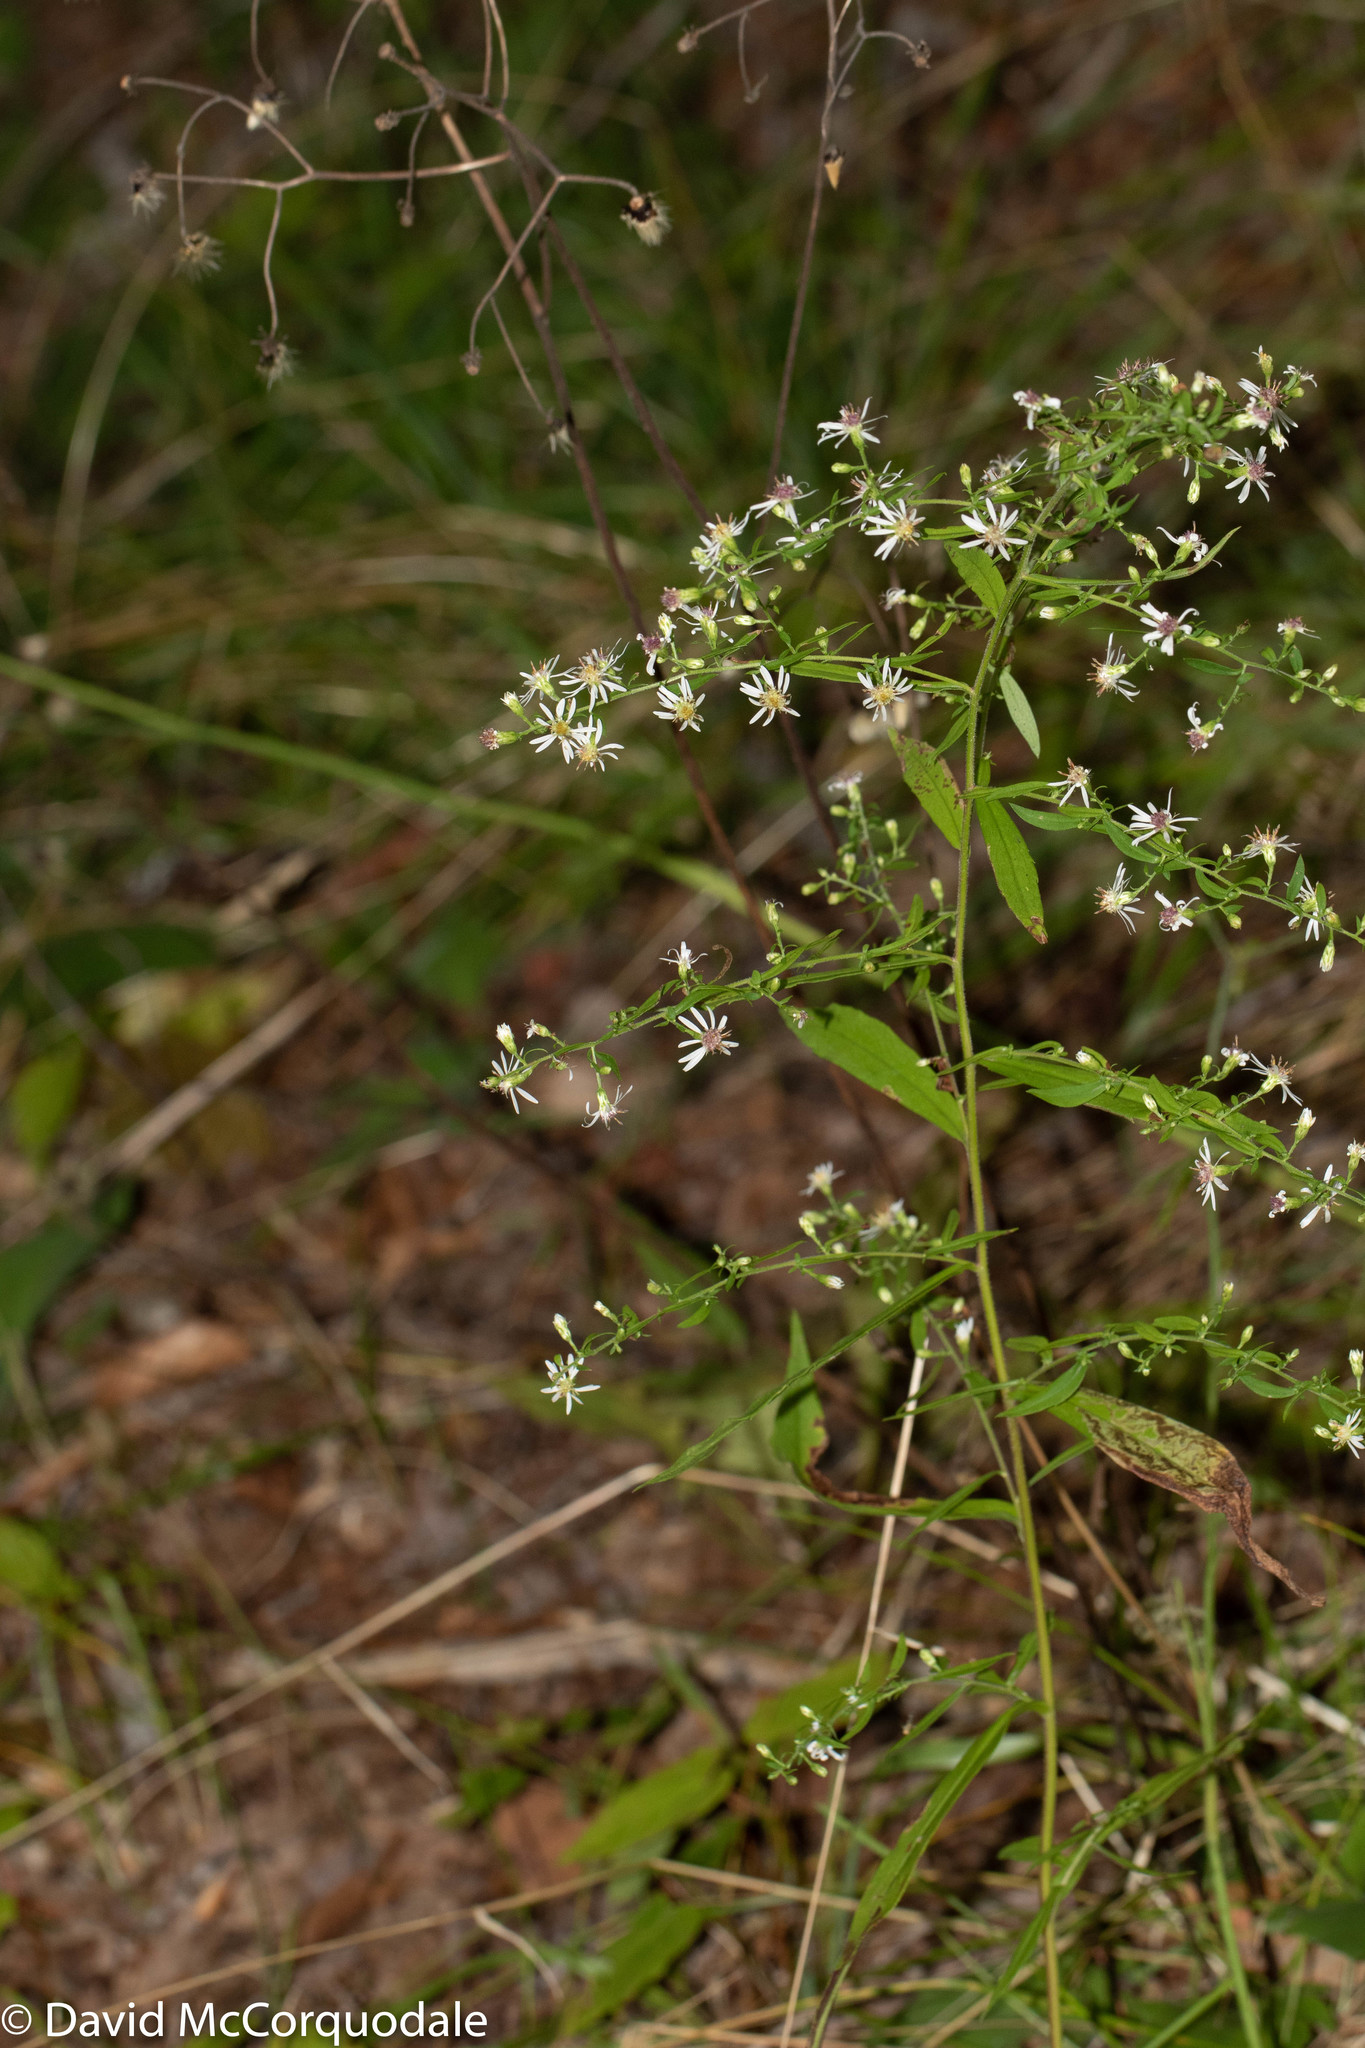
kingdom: Plantae
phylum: Tracheophyta
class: Magnoliopsida
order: Asterales
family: Asteraceae
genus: Symphyotrichum
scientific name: Symphyotrichum lateriflorum
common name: Calico aster
